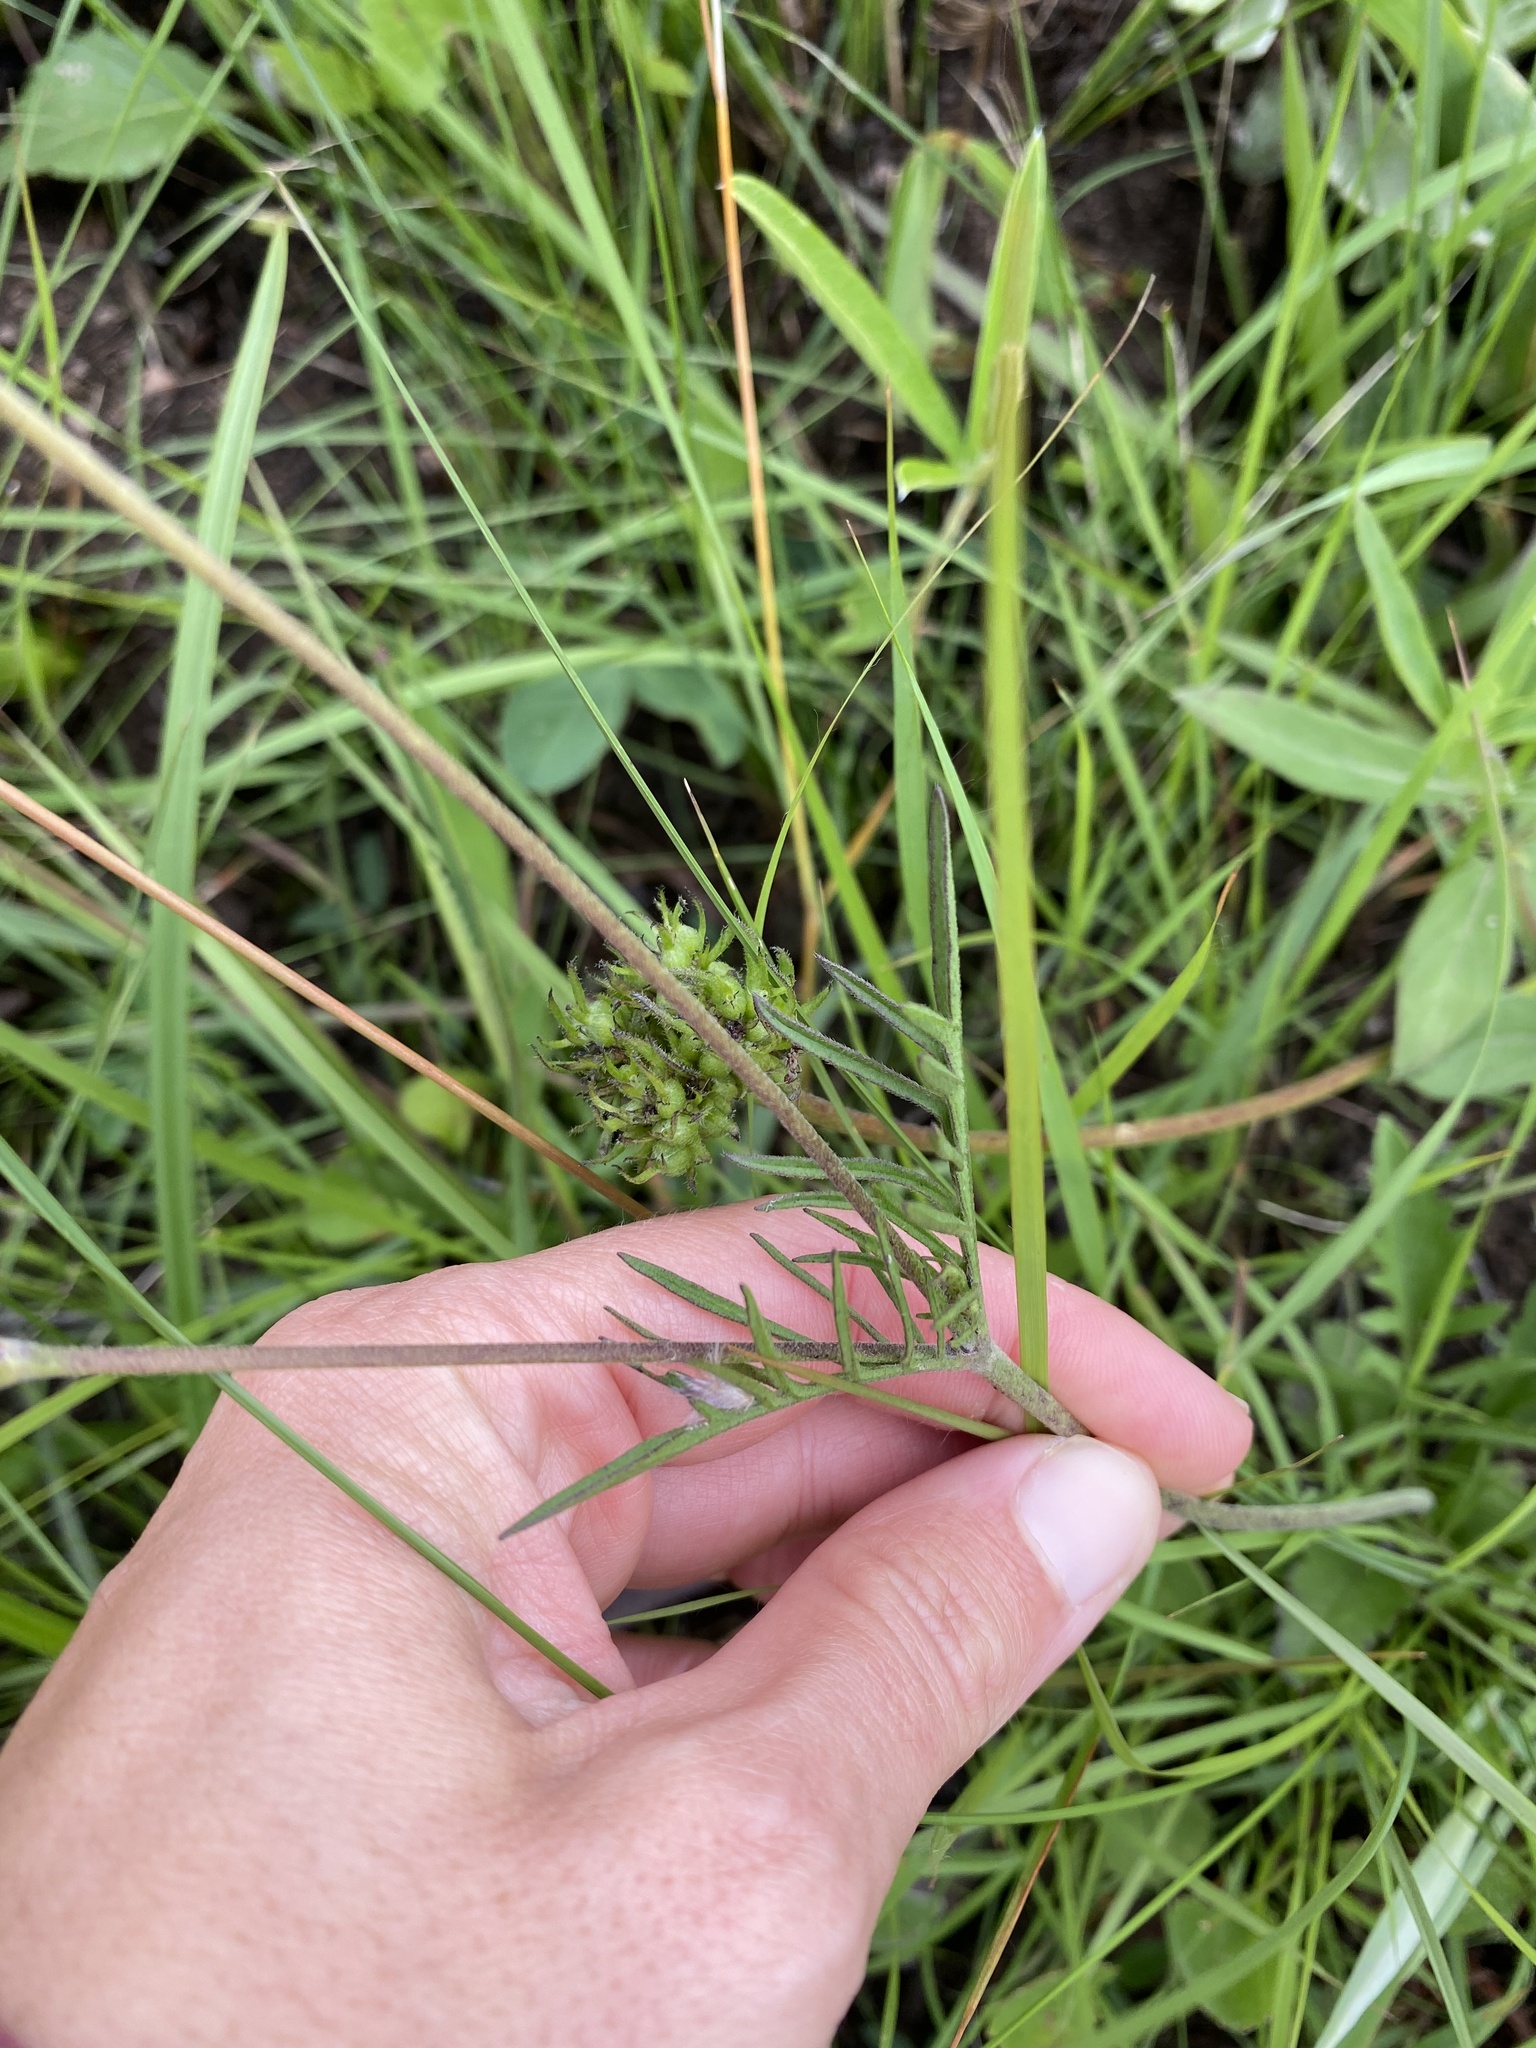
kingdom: Plantae
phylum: Tracheophyta
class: Magnoliopsida
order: Dipsacales
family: Caprifoliaceae
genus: Scabiosa
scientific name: Scabiosa columbaria
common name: Small scabious
